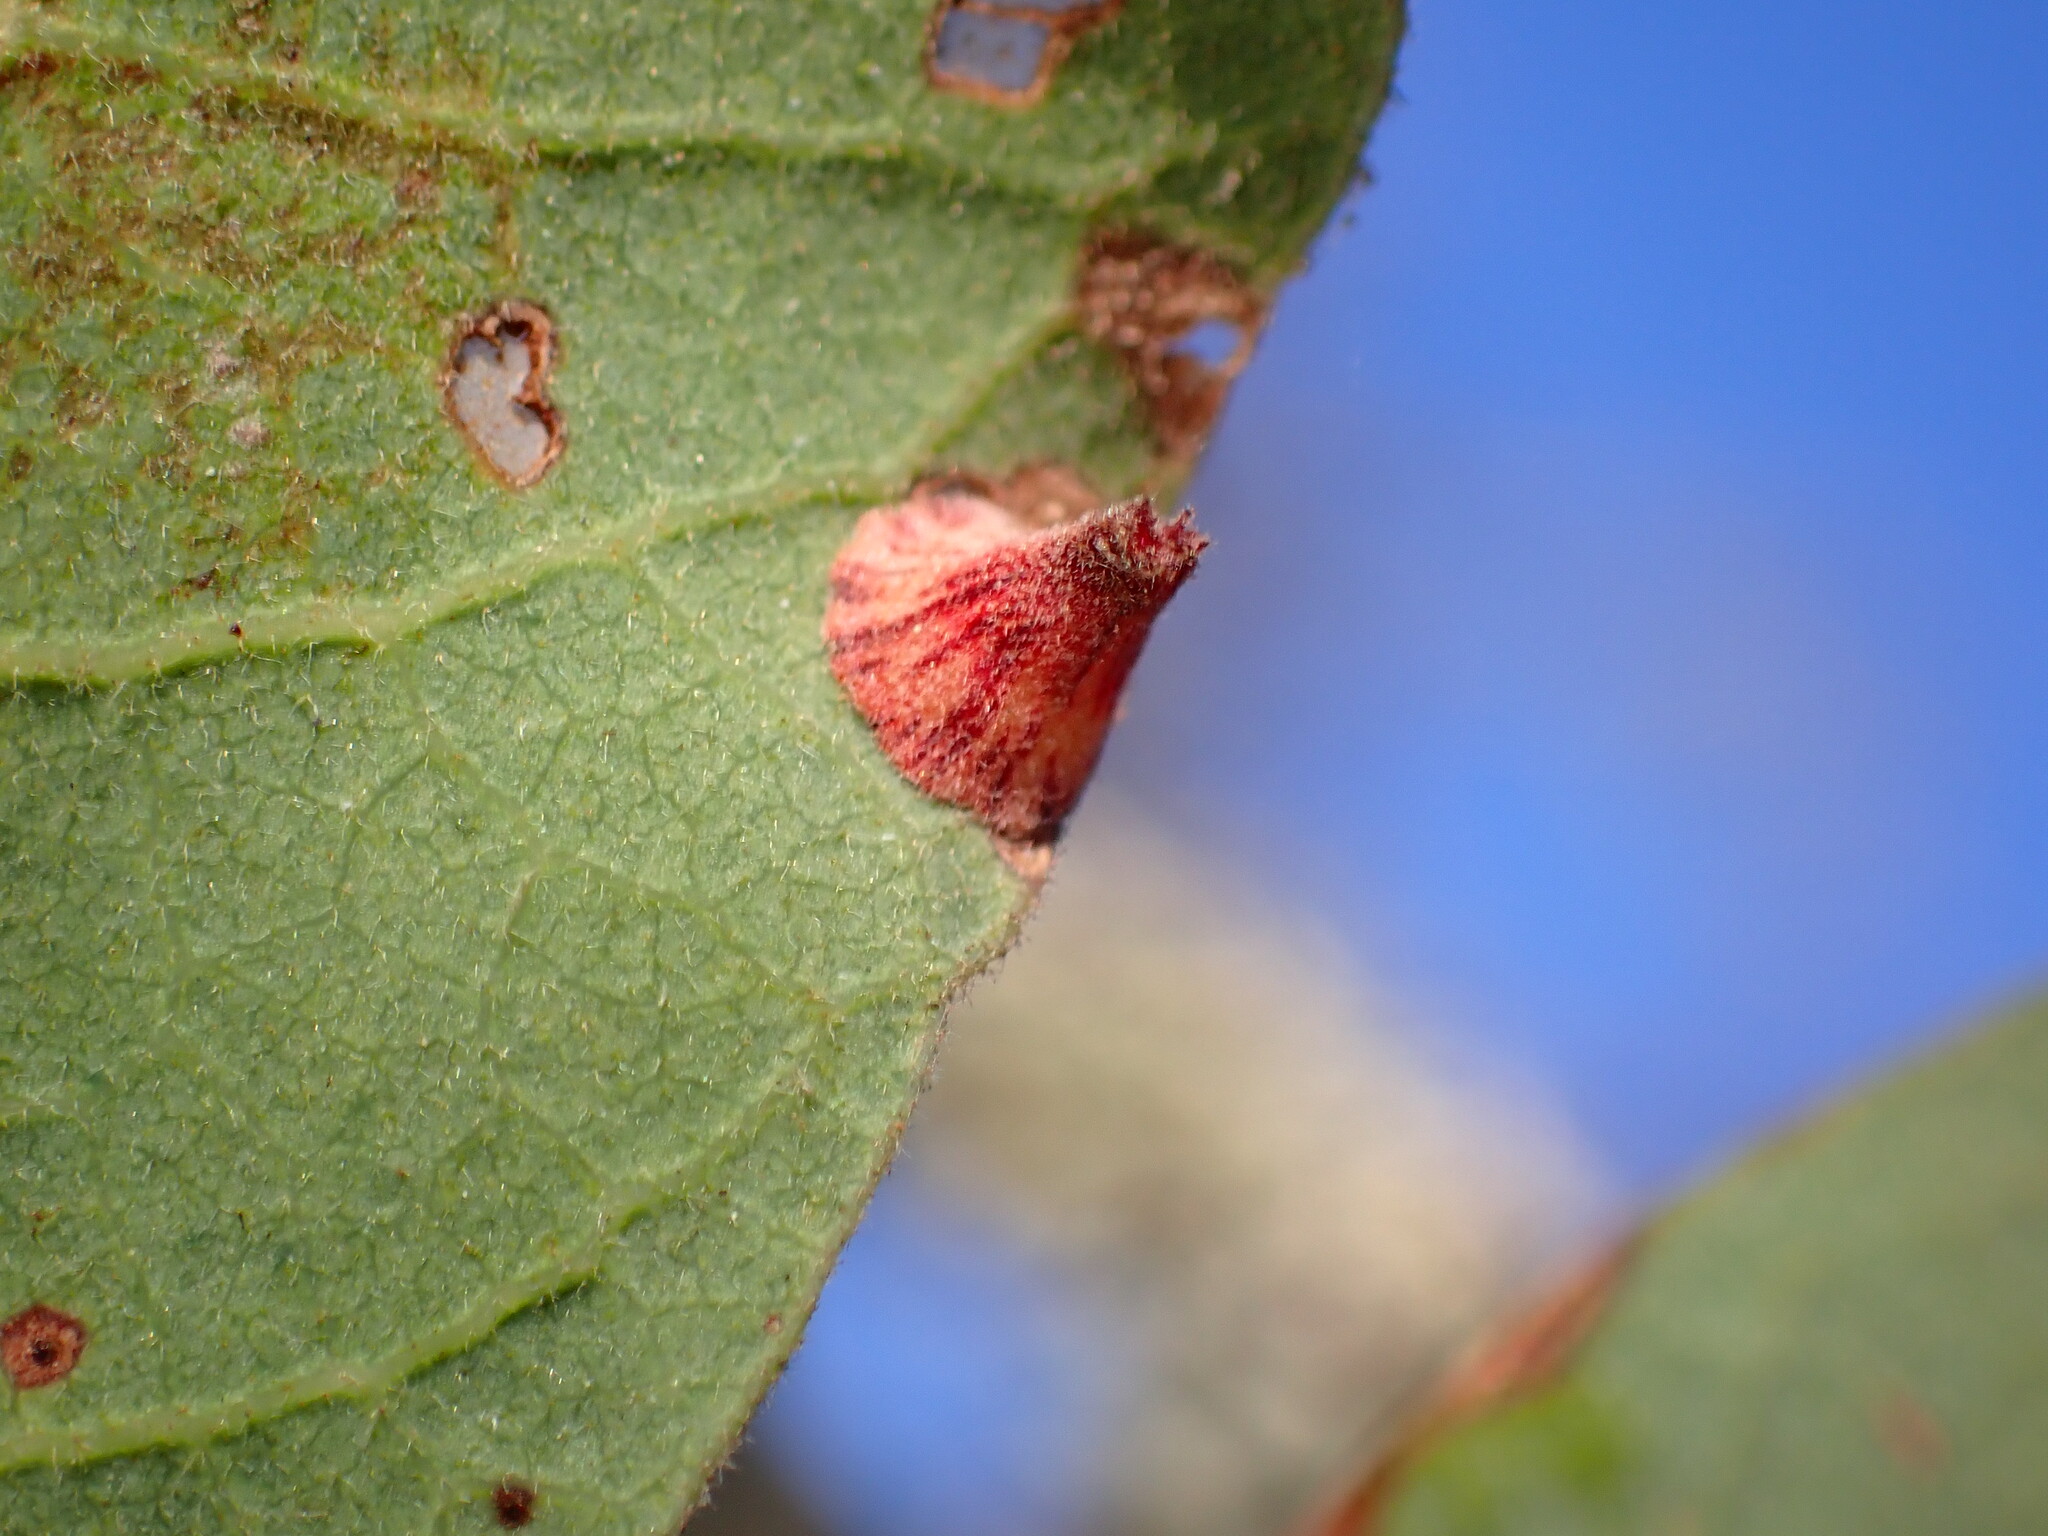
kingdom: Animalia
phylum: Arthropoda
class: Insecta
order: Hymenoptera
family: Cynipidae
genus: Andricus
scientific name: Andricus
